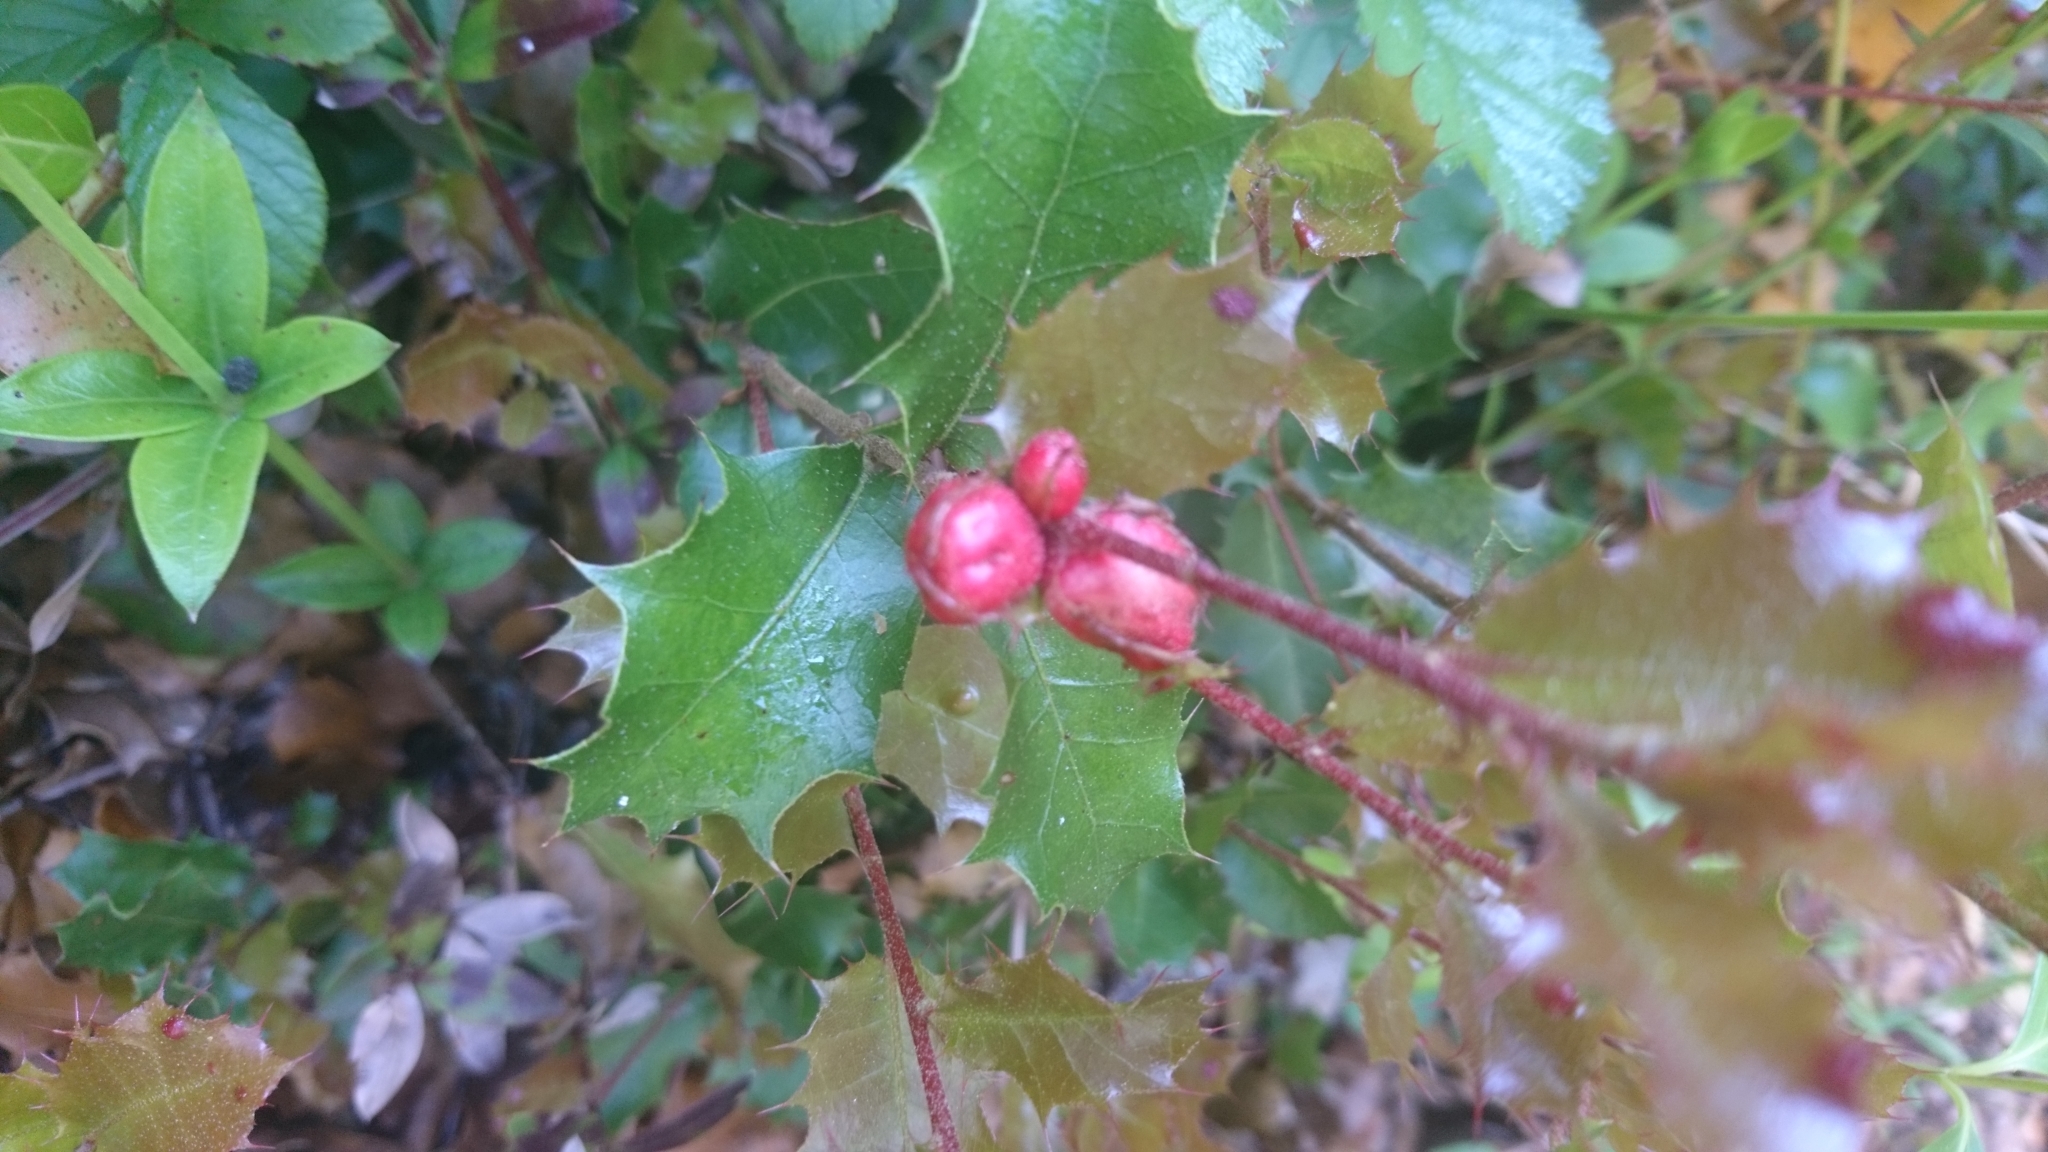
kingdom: Animalia
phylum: Arthropoda
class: Insecta
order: Hymenoptera
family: Cynipidae
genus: Plagiotrochus
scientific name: Plagiotrochus quercusilicis
